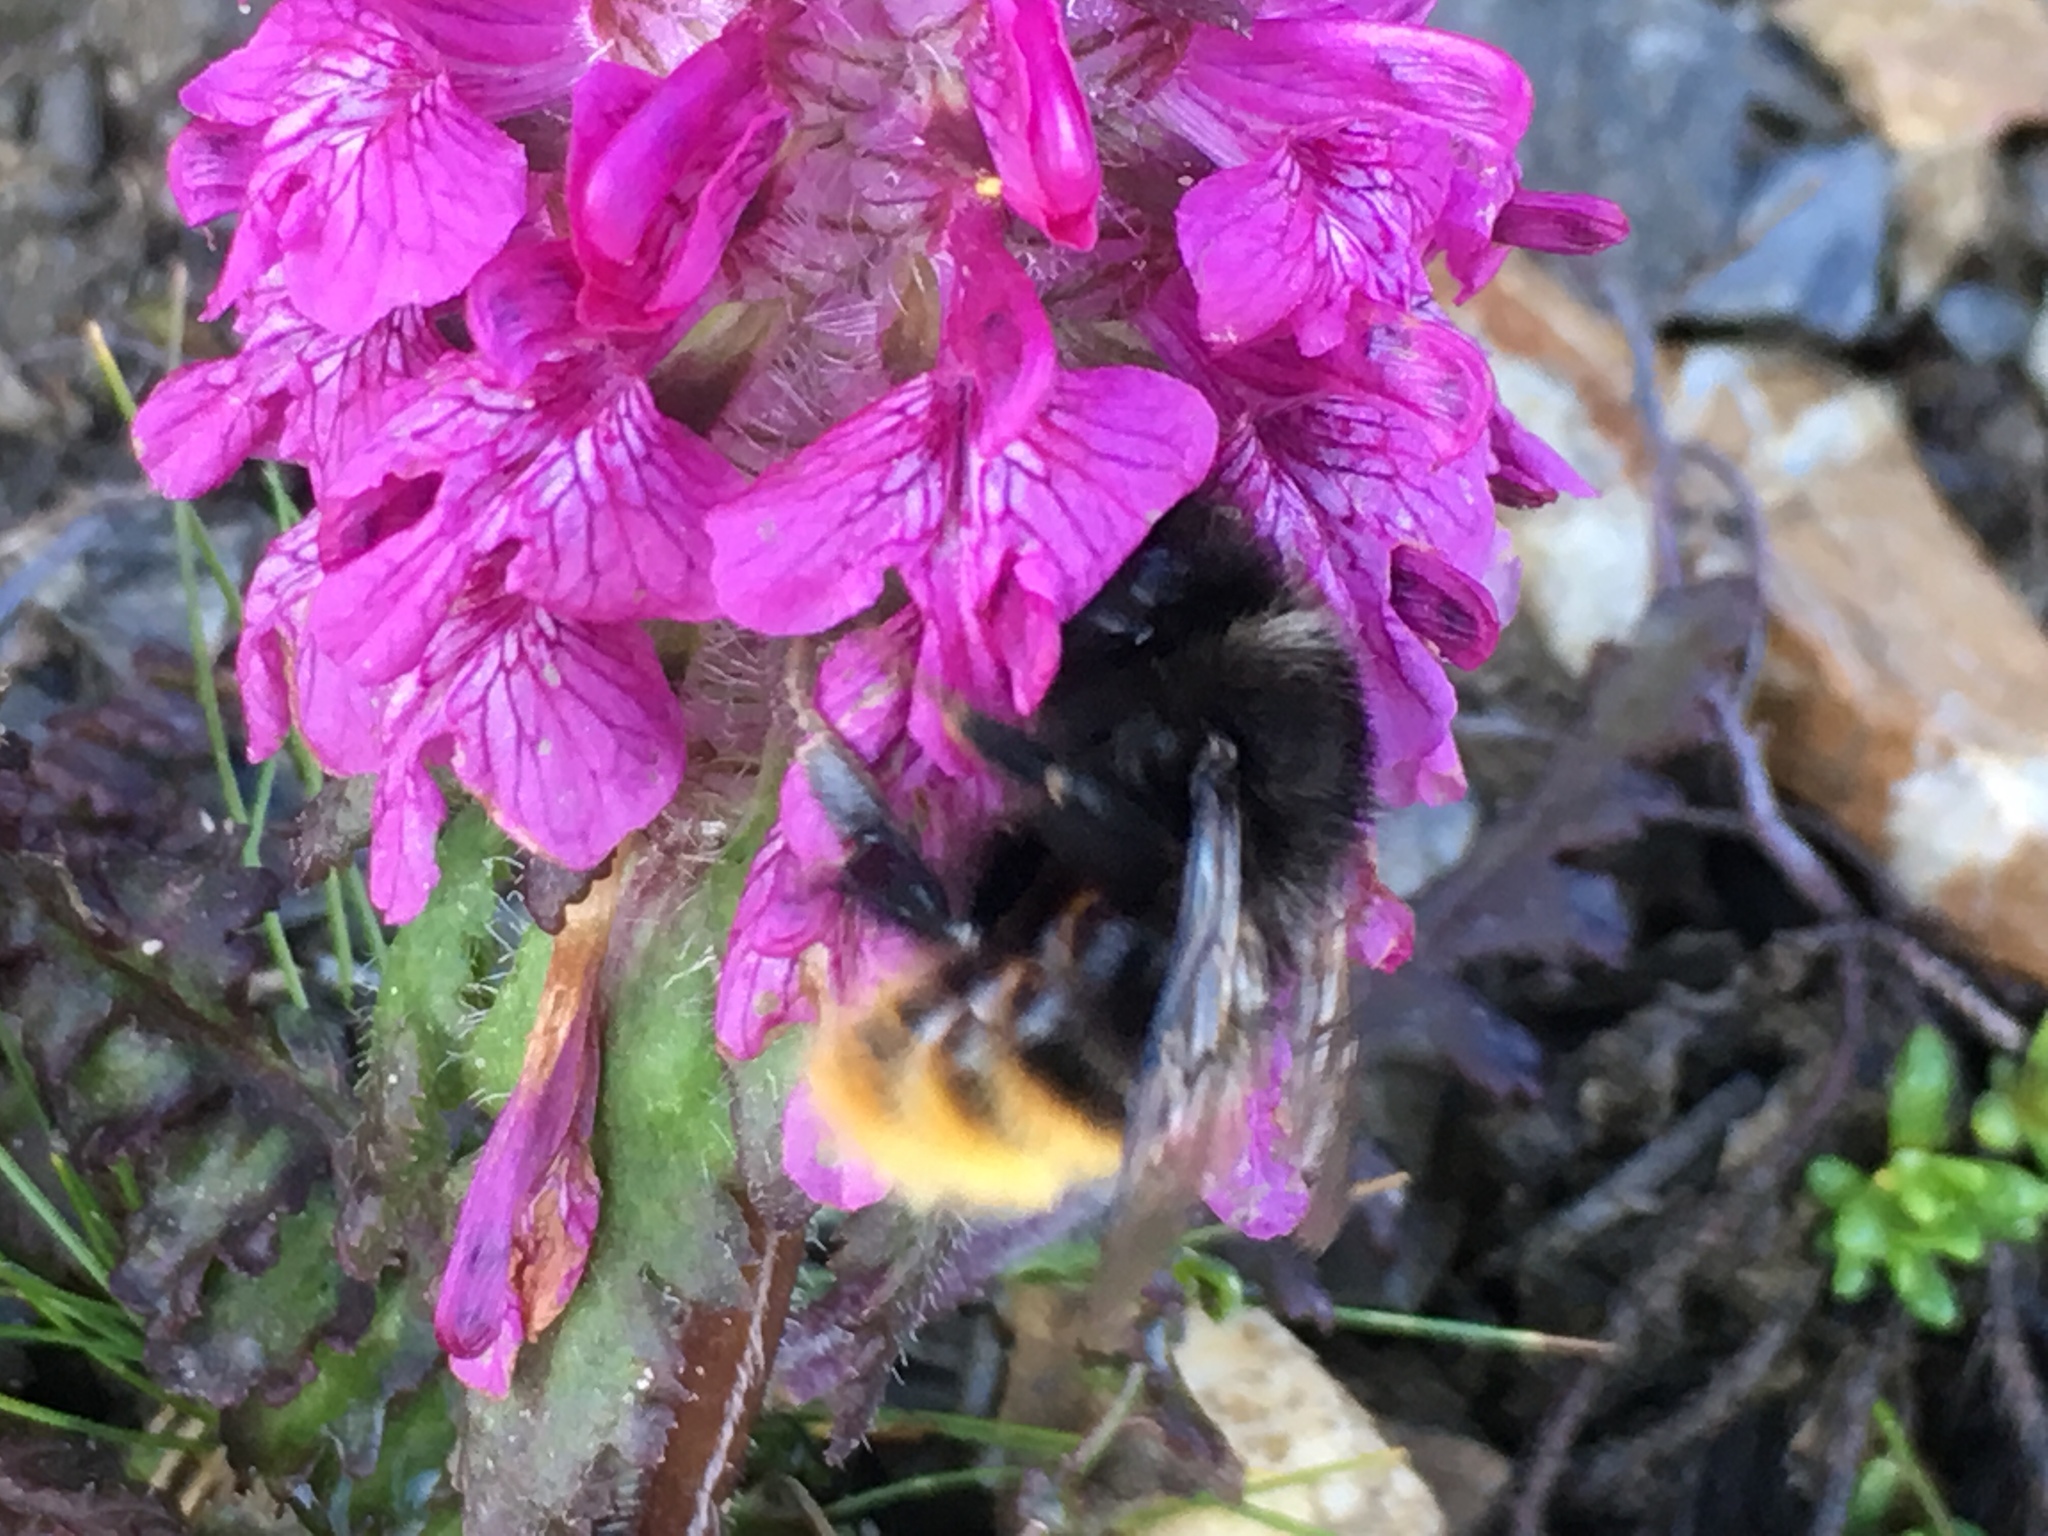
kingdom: Plantae
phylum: Tracheophyta
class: Magnoliopsida
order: Lamiales
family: Orobanchaceae
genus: Pedicularis
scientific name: Pedicularis verticillata
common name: Whorled lousewort
